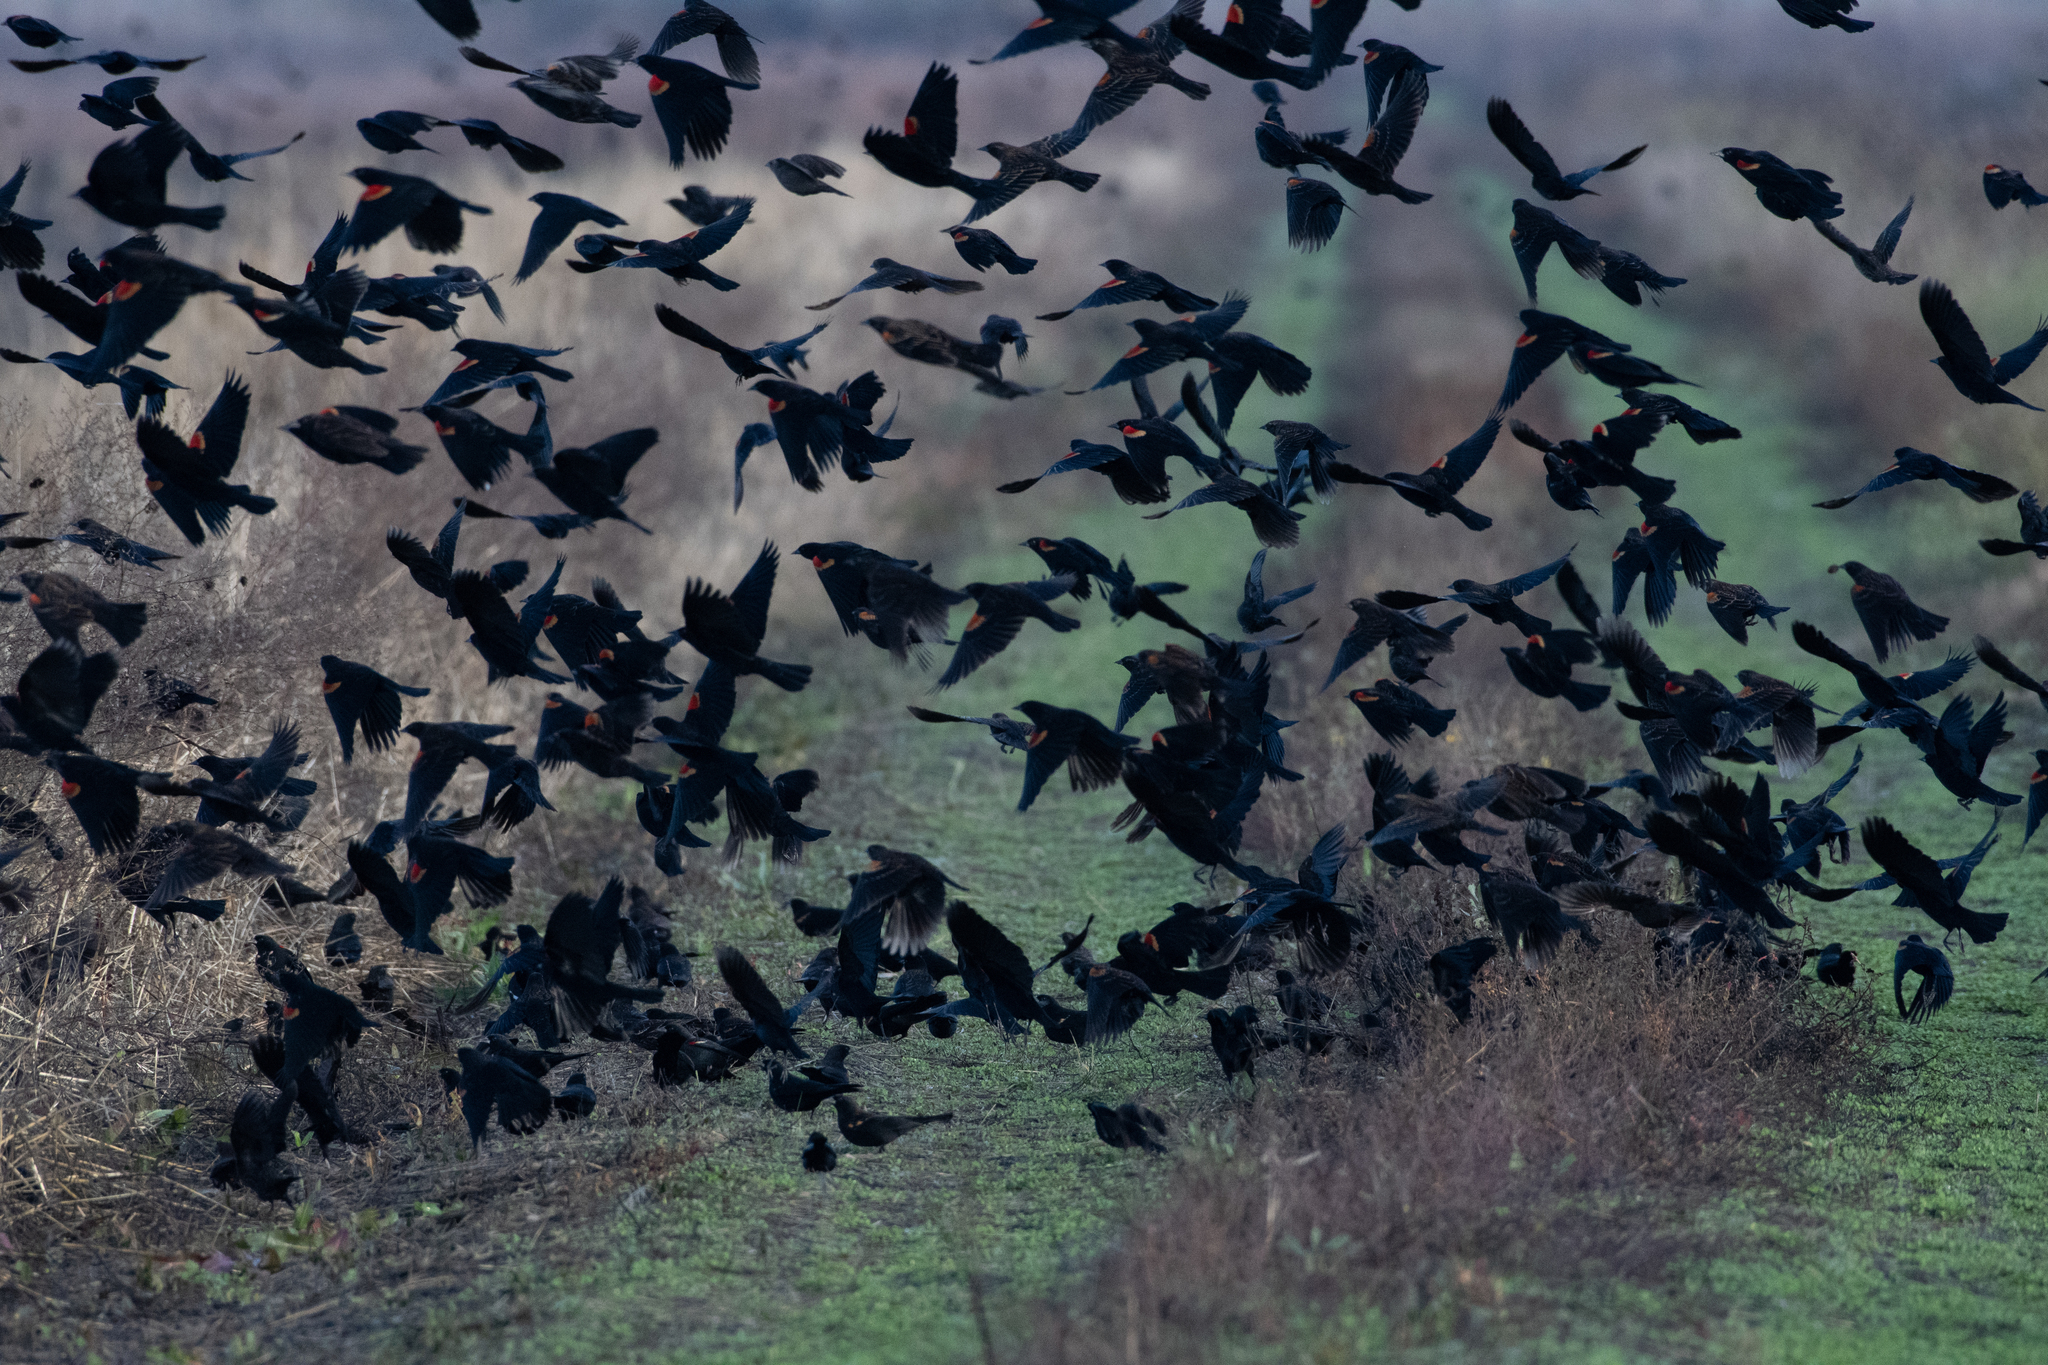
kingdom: Animalia
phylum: Chordata
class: Aves
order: Passeriformes
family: Icteridae
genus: Agelaius
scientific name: Agelaius phoeniceus
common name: Red-winged blackbird
